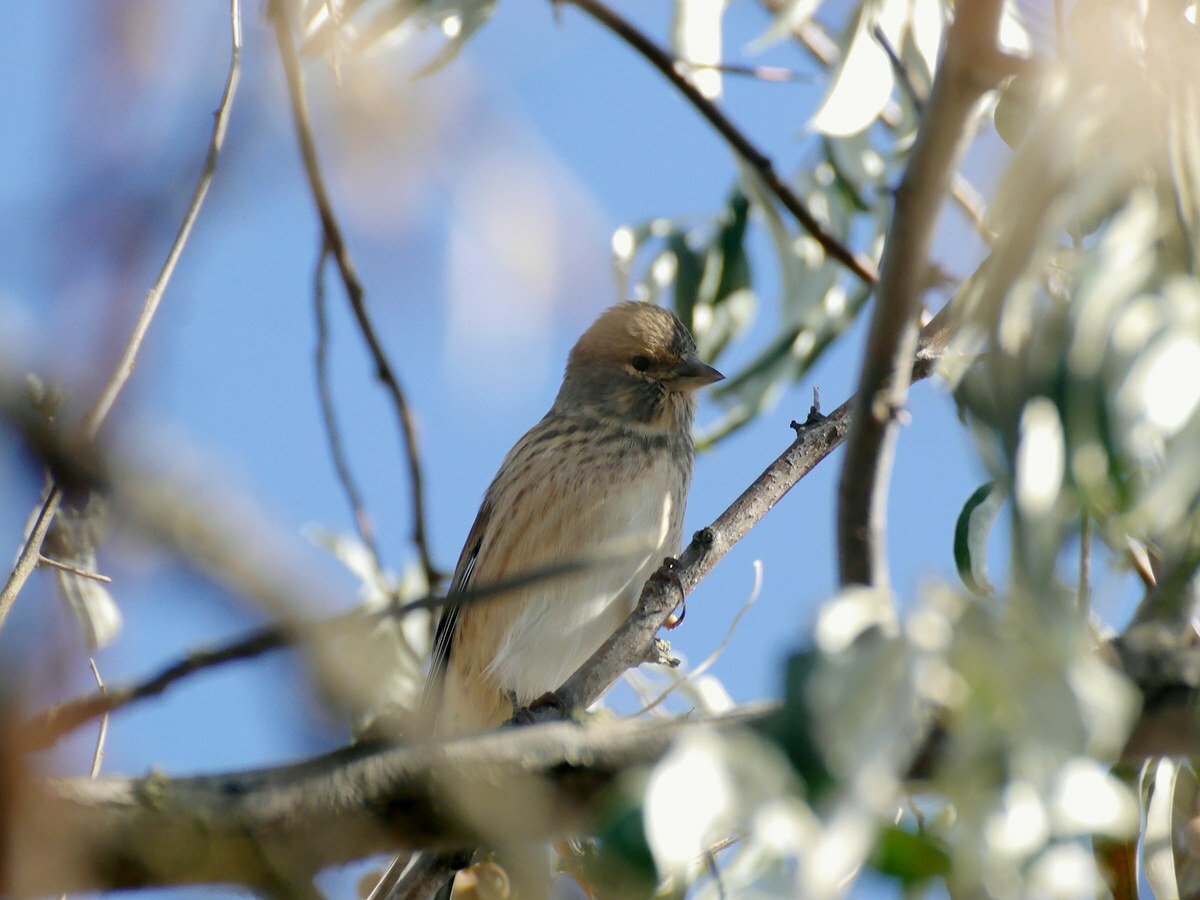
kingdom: Animalia
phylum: Chordata
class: Aves
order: Passeriformes
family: Fringillidae
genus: Linaria
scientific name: Linaria cannabina
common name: Common linnet
